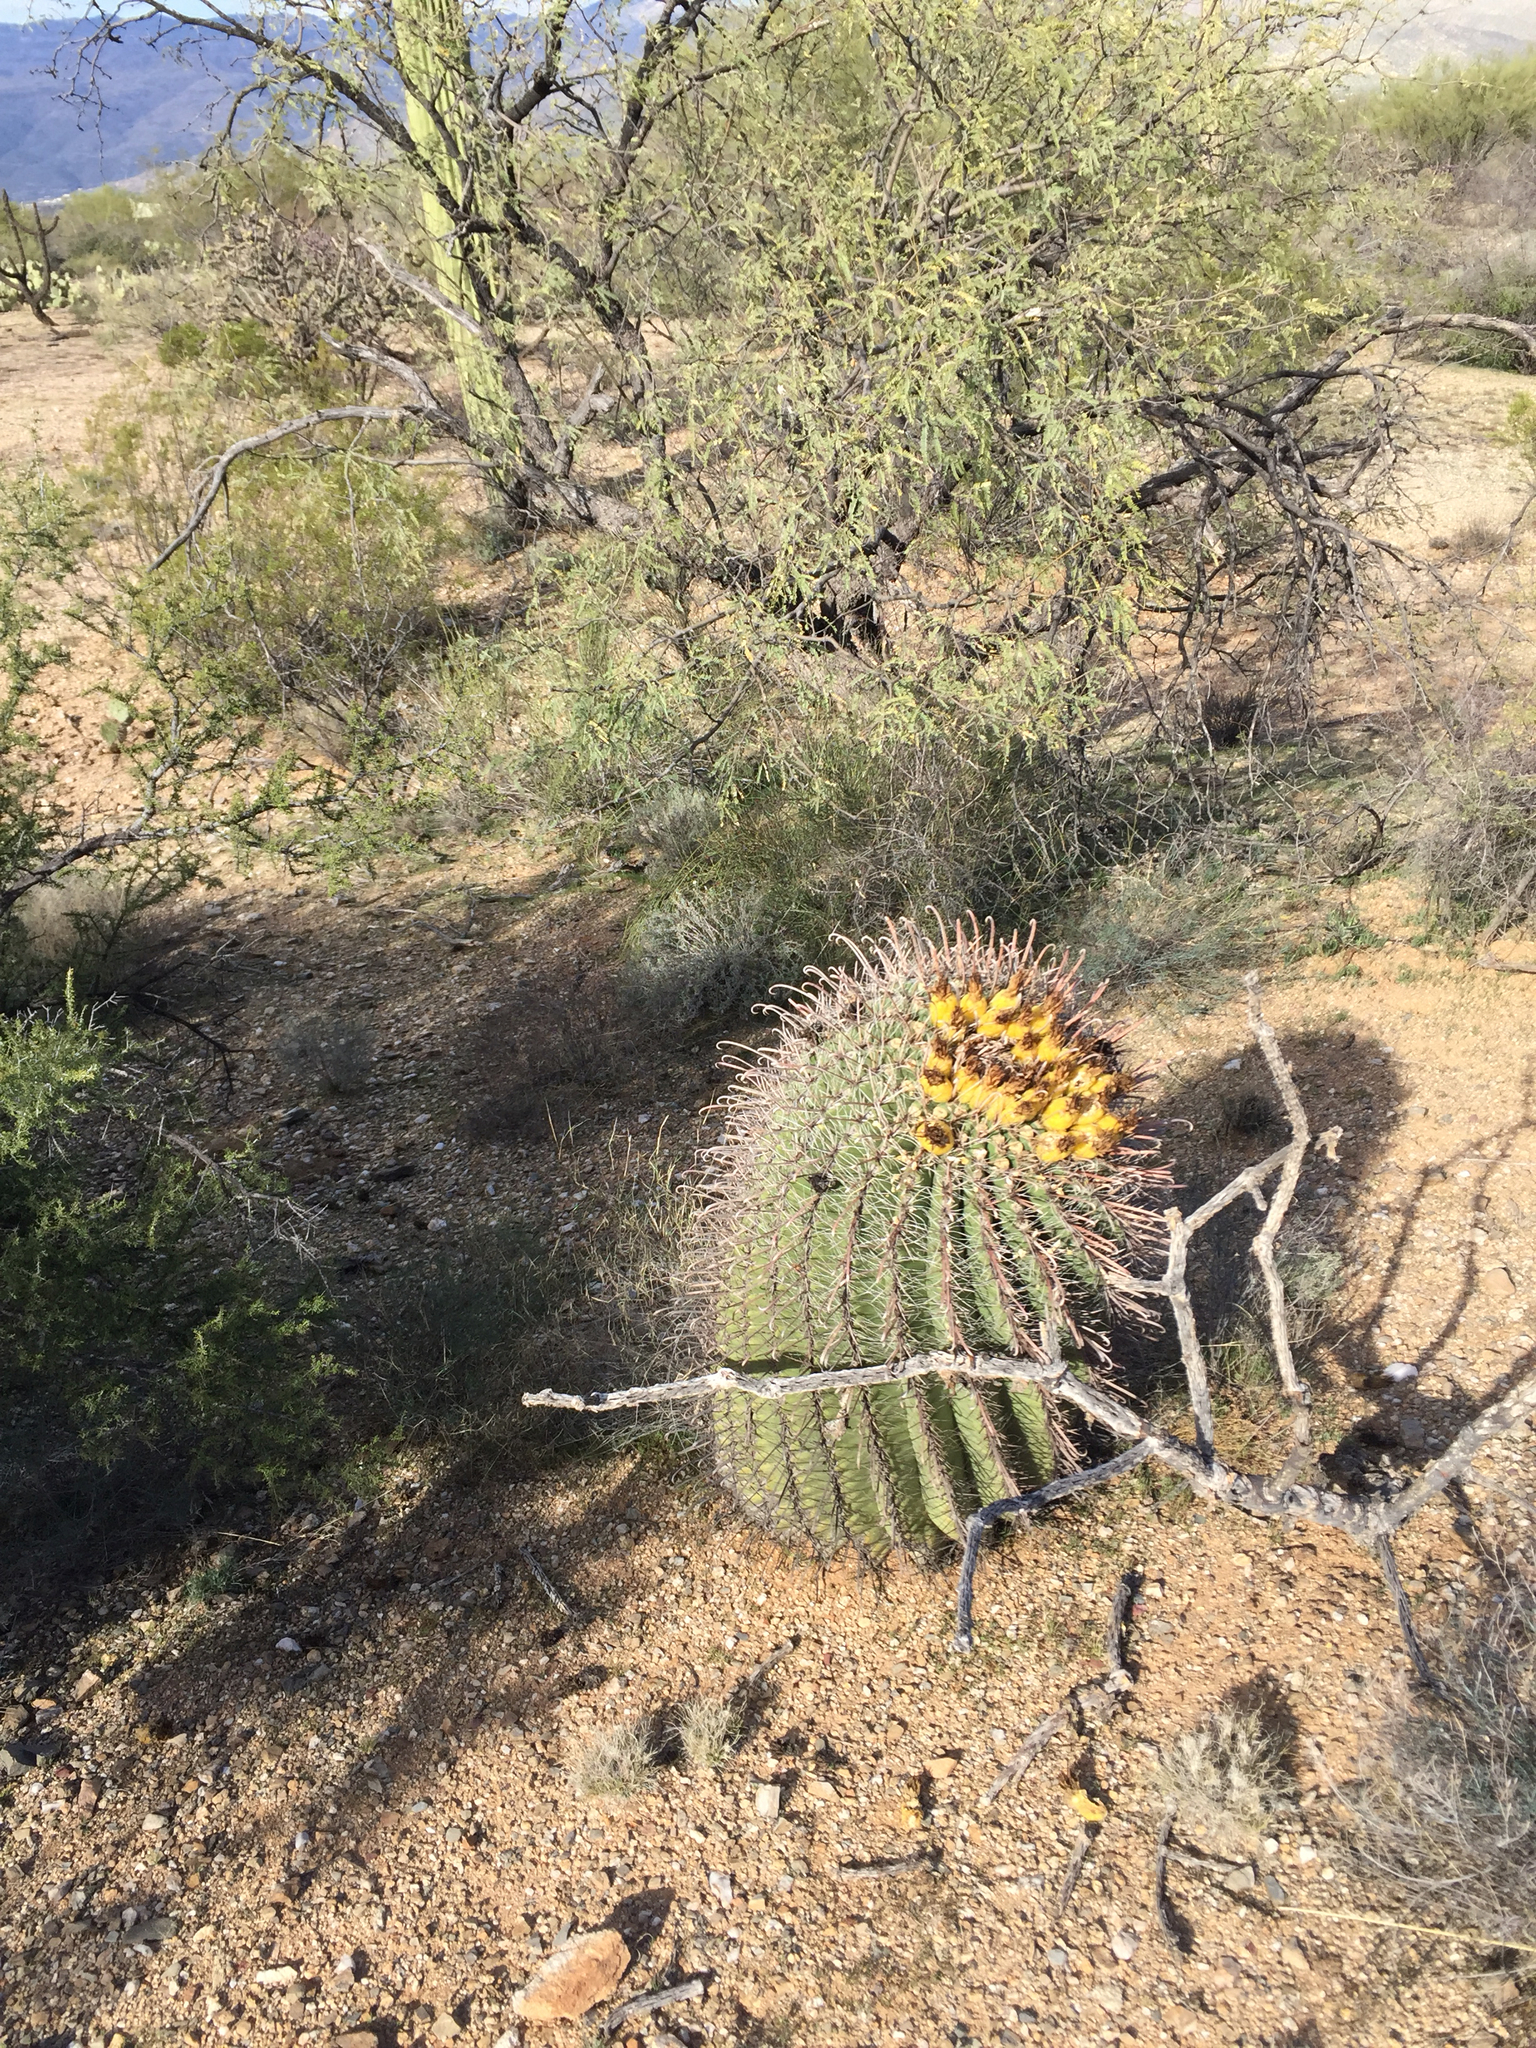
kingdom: Plantae
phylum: Tracheophyta
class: Magnoliopsida
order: Caryophyllales
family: Cactaceae
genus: Ferocactus
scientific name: Ferocactus wislizeni
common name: Candy barrel cactus
